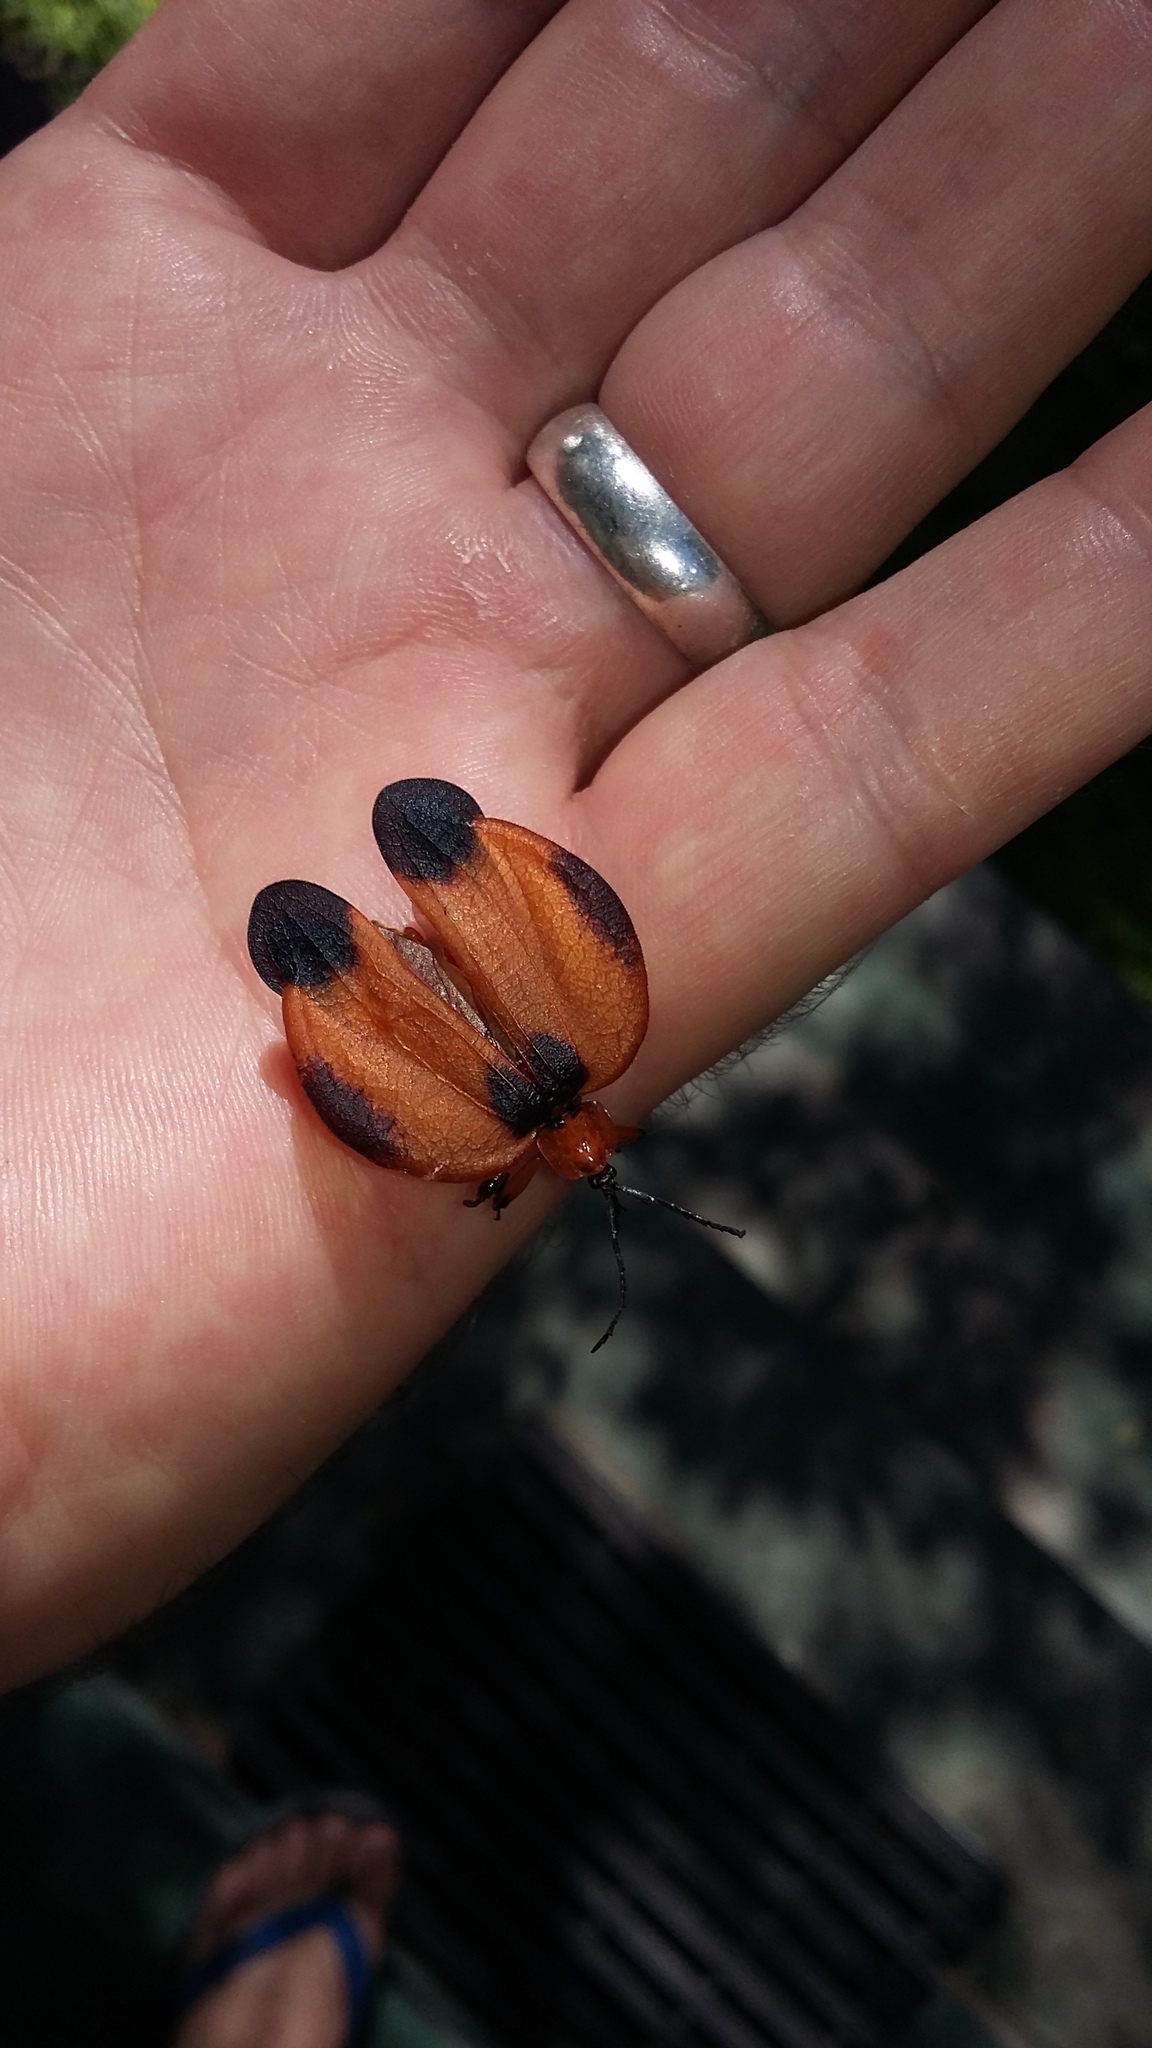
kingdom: Animalia
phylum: Arthropoda
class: Insecta
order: Coleoptera
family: Lycidae
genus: Lycus
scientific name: Lycus
